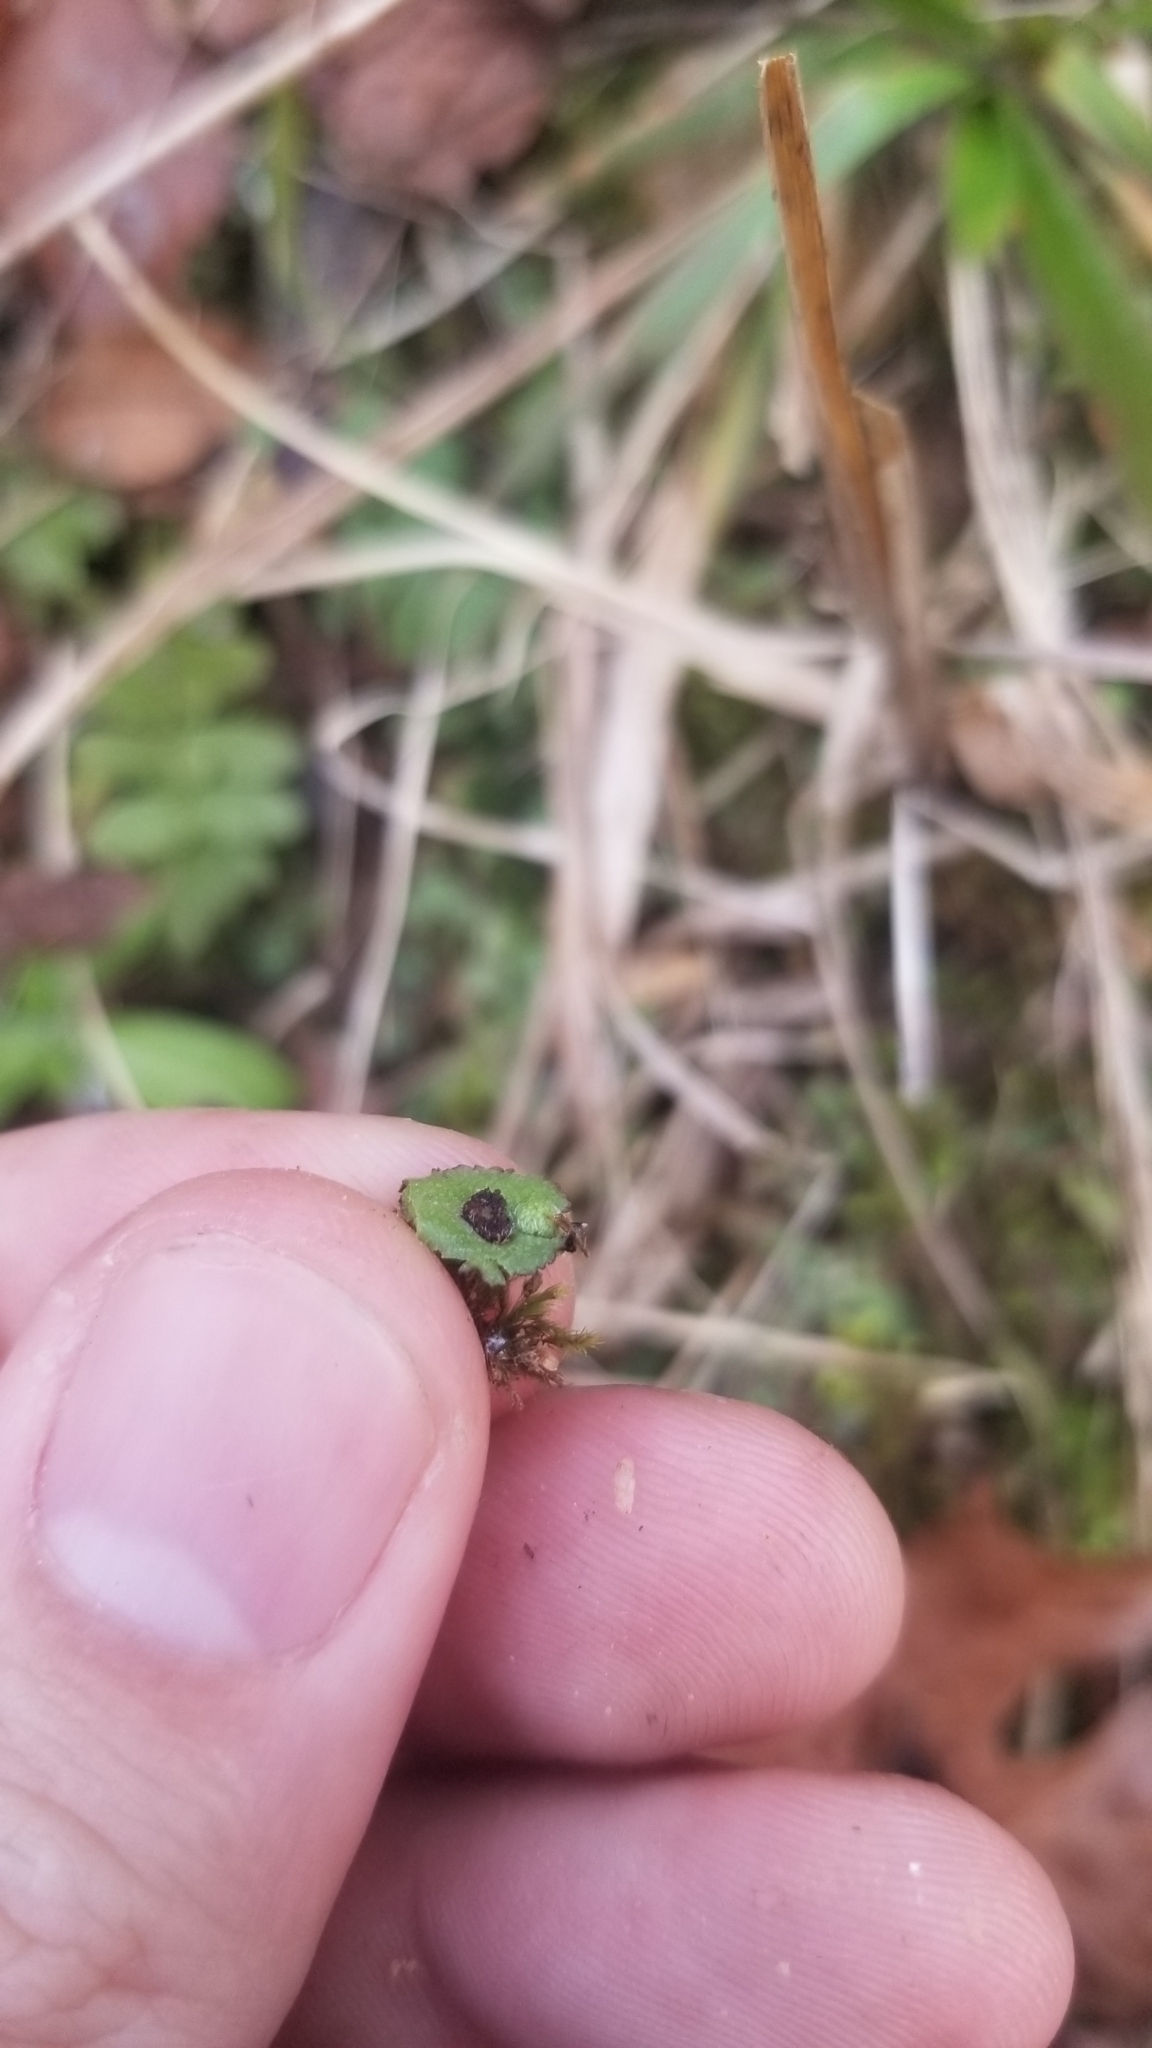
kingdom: Plantae
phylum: Marchantiophyta
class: Marchantiopsida
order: Marchantiales
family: Aytoniaceae
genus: Reboulia
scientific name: Reboulia hemisphaerica
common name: Purple-margined liverwort
